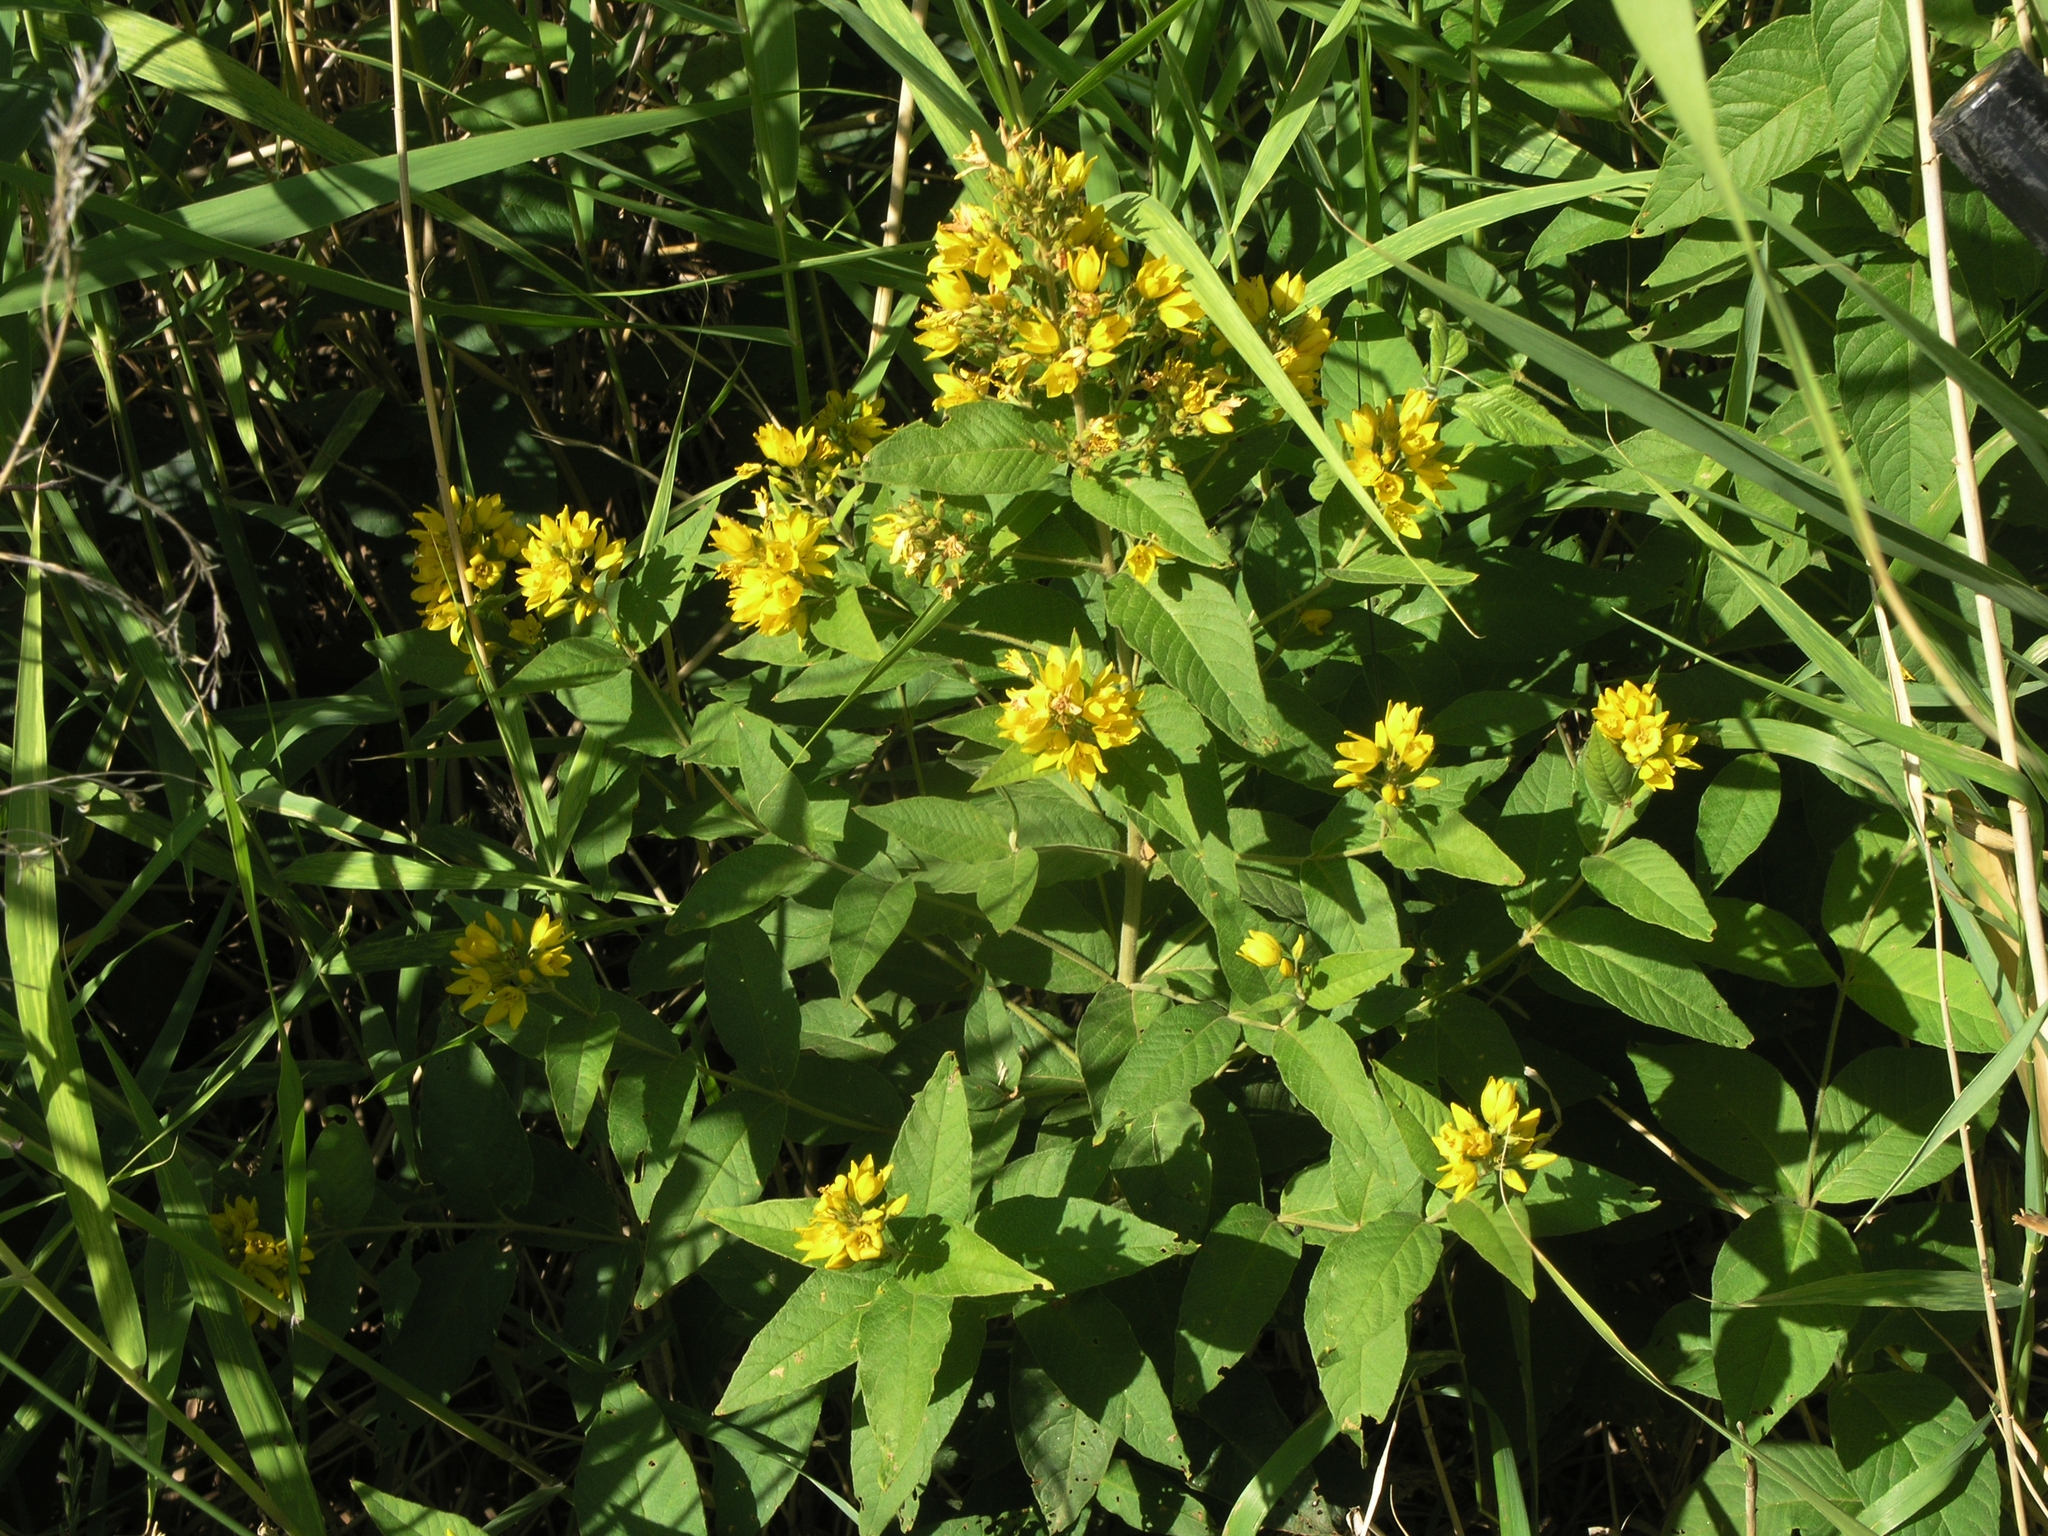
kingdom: Plantae
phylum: Tracheophyta
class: Magnoliopsida
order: Ericales
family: Primulaceae
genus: Lysimachia
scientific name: Lysimachia vulgaris
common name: Yellow loosestrife
